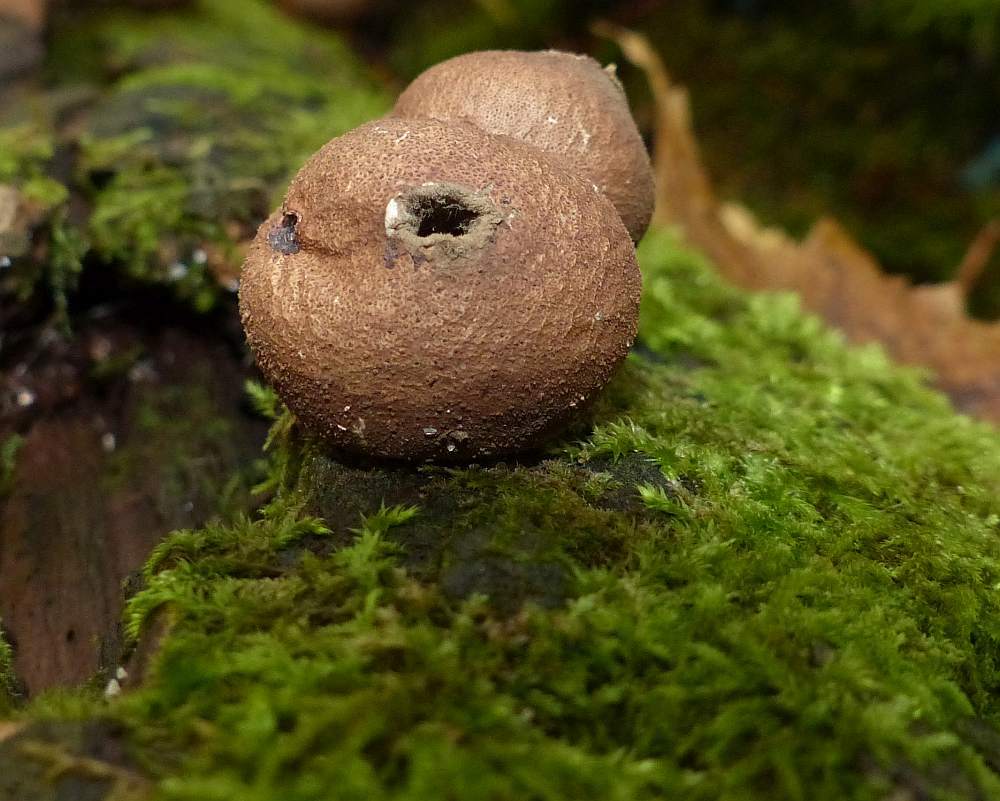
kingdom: Fungi
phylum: Basidiomycota
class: Agaricomycetes
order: Agaricales
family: Lycoperdaceae
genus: Apioperdon
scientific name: Apioperdon pyriforme
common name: Pear-shaped puffball
